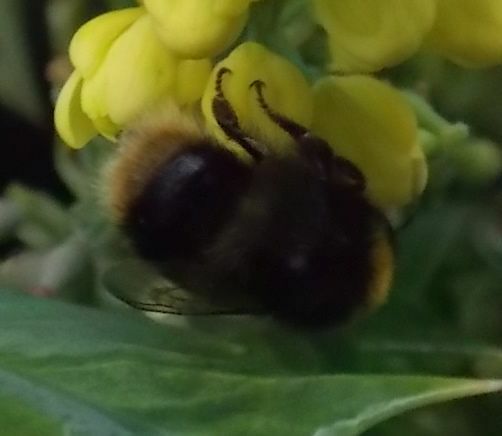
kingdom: Animalia
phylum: Arthropoda
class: Insecta
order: Hymenoptera
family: Apidae
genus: Bombus
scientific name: Bombus pratorum
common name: Early humble-bee
